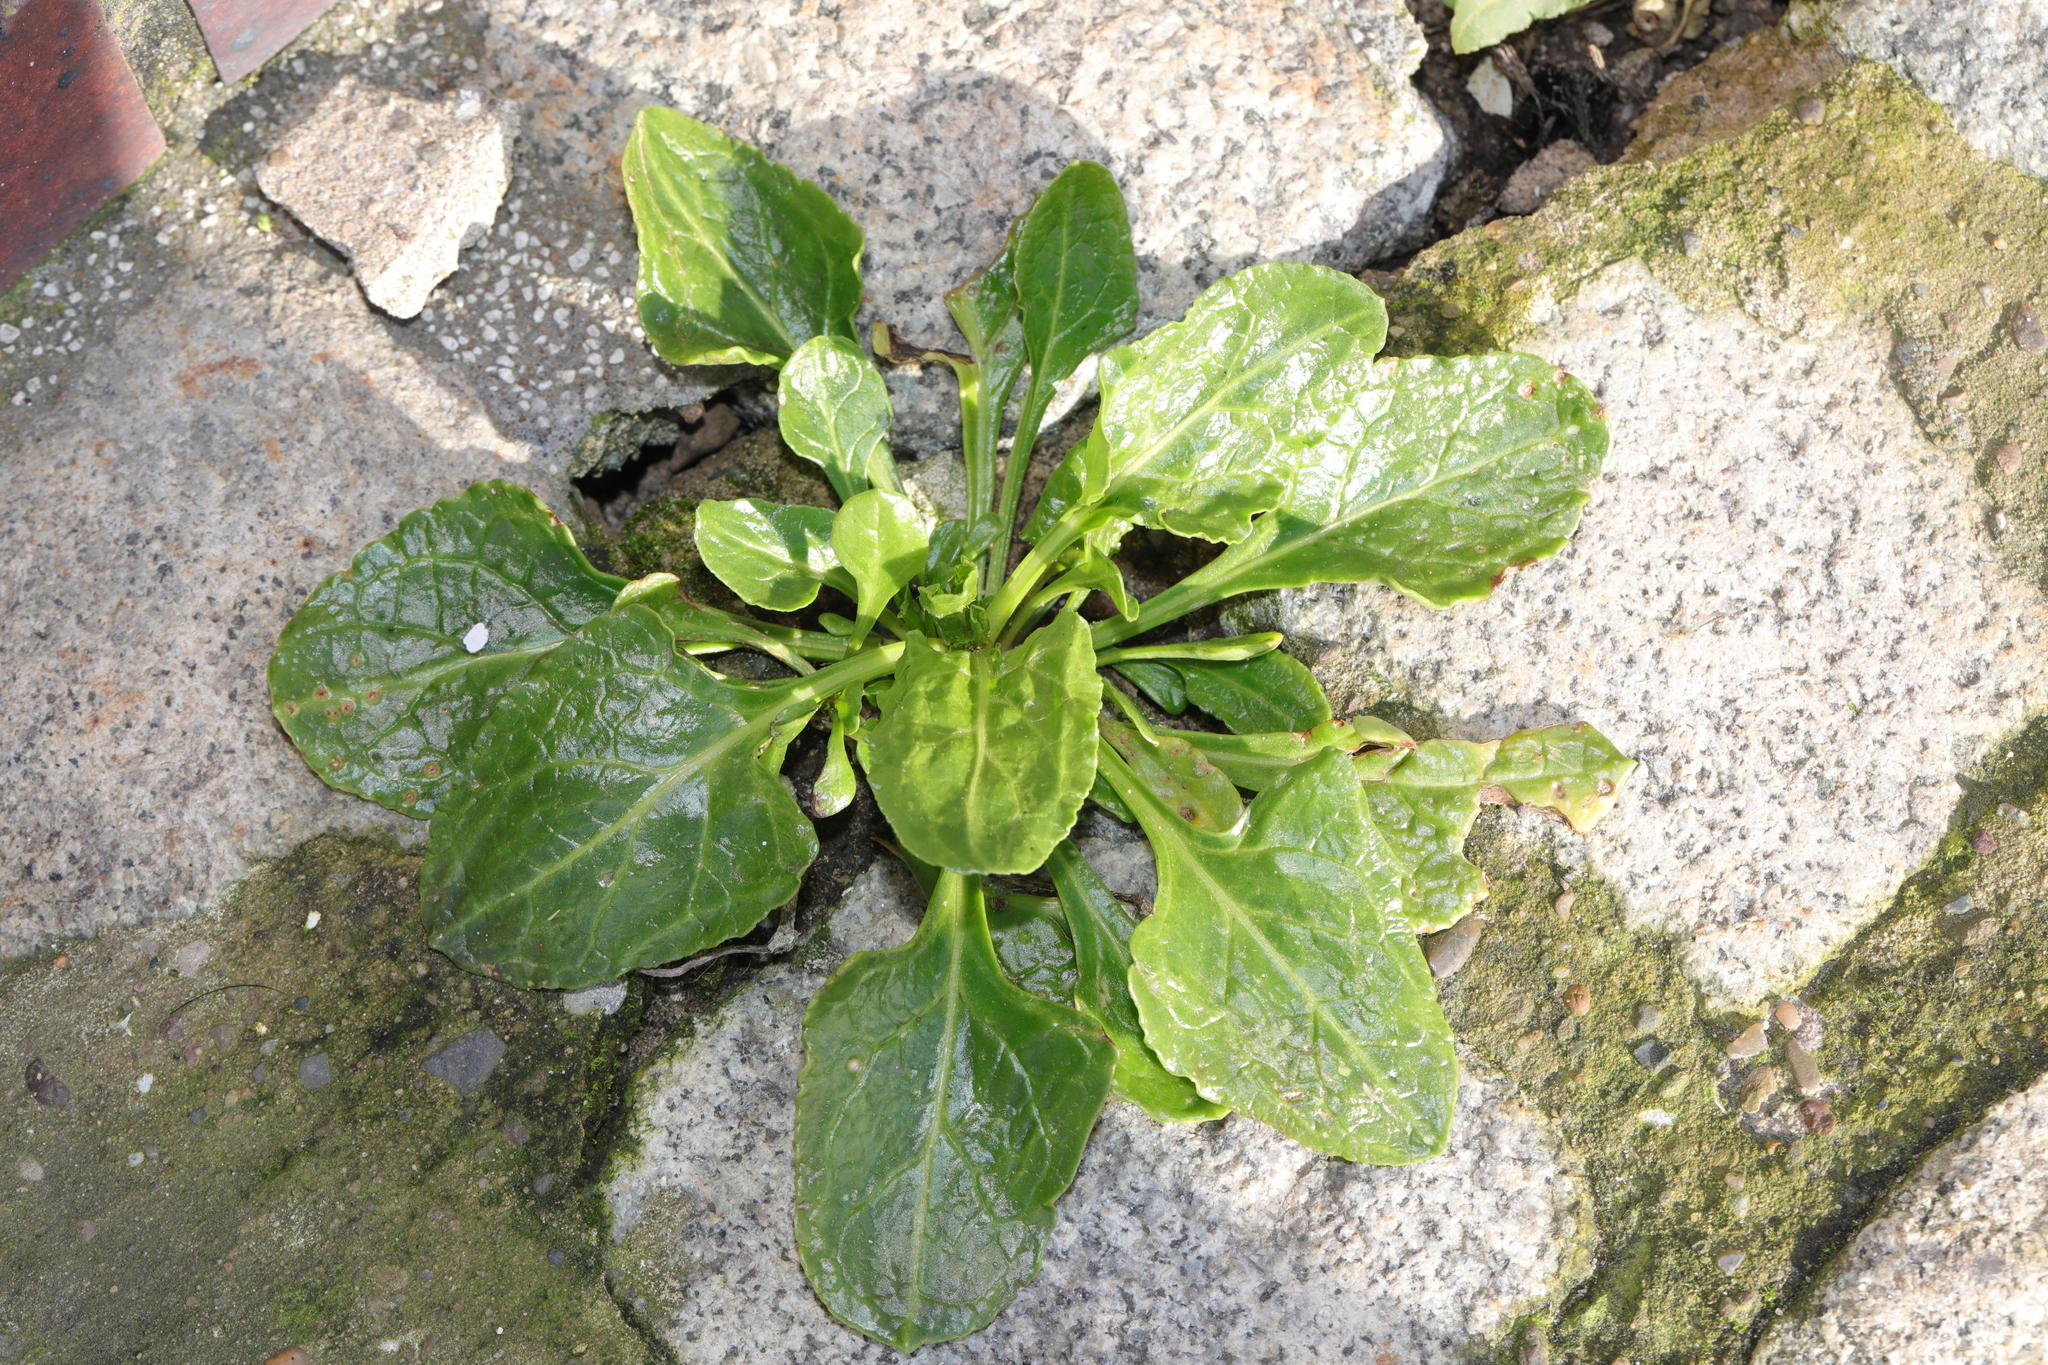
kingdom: Plantae
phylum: Tracheophyta
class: Magnoliopsida
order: Caryophyllales
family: Amaranthaceae
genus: Beta
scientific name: Beta vulgaris
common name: Beet
